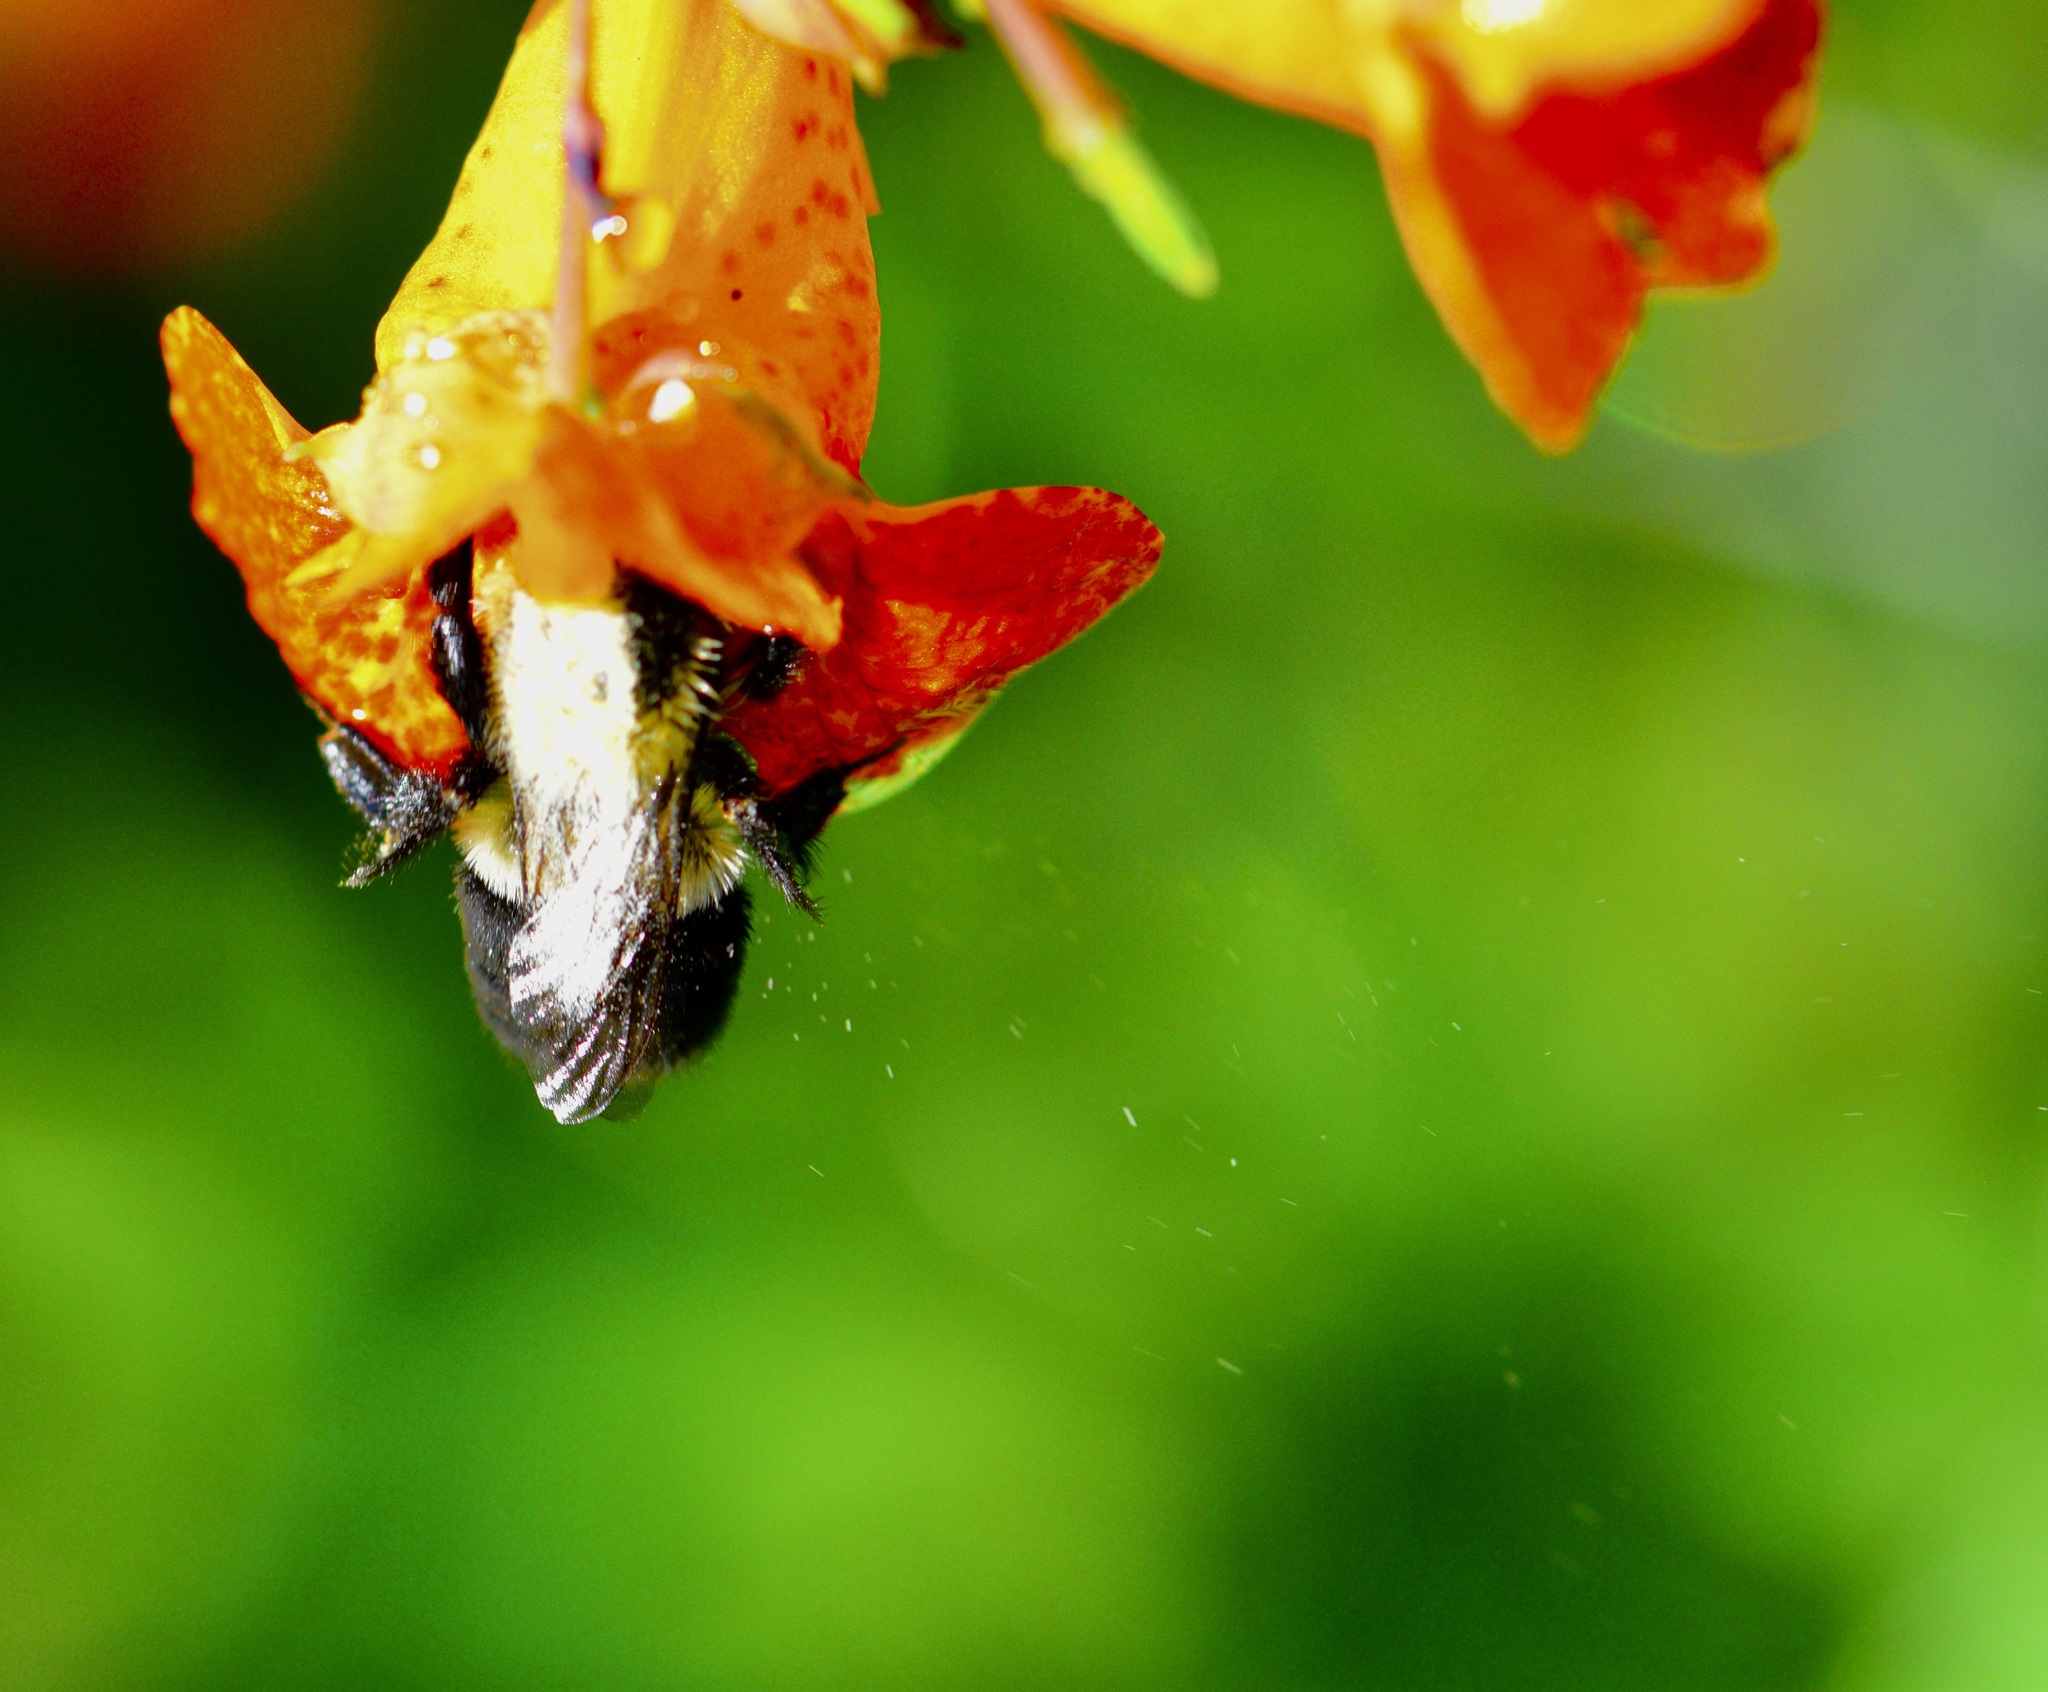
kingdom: Animalia
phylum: Arthropoda
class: Insecta
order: Hymenoptera
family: Apidae
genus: Bombus
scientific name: Bombus impatiens
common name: Common eastern bumble bee
